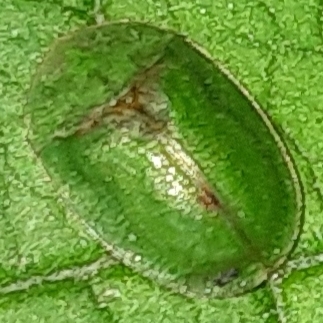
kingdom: Animalia
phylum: Arthropoda
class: Insecta
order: Coleoptera
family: Chrysomelidae
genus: Cassida
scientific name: Cassida rubiginosa
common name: Thistle tortoise beetle
